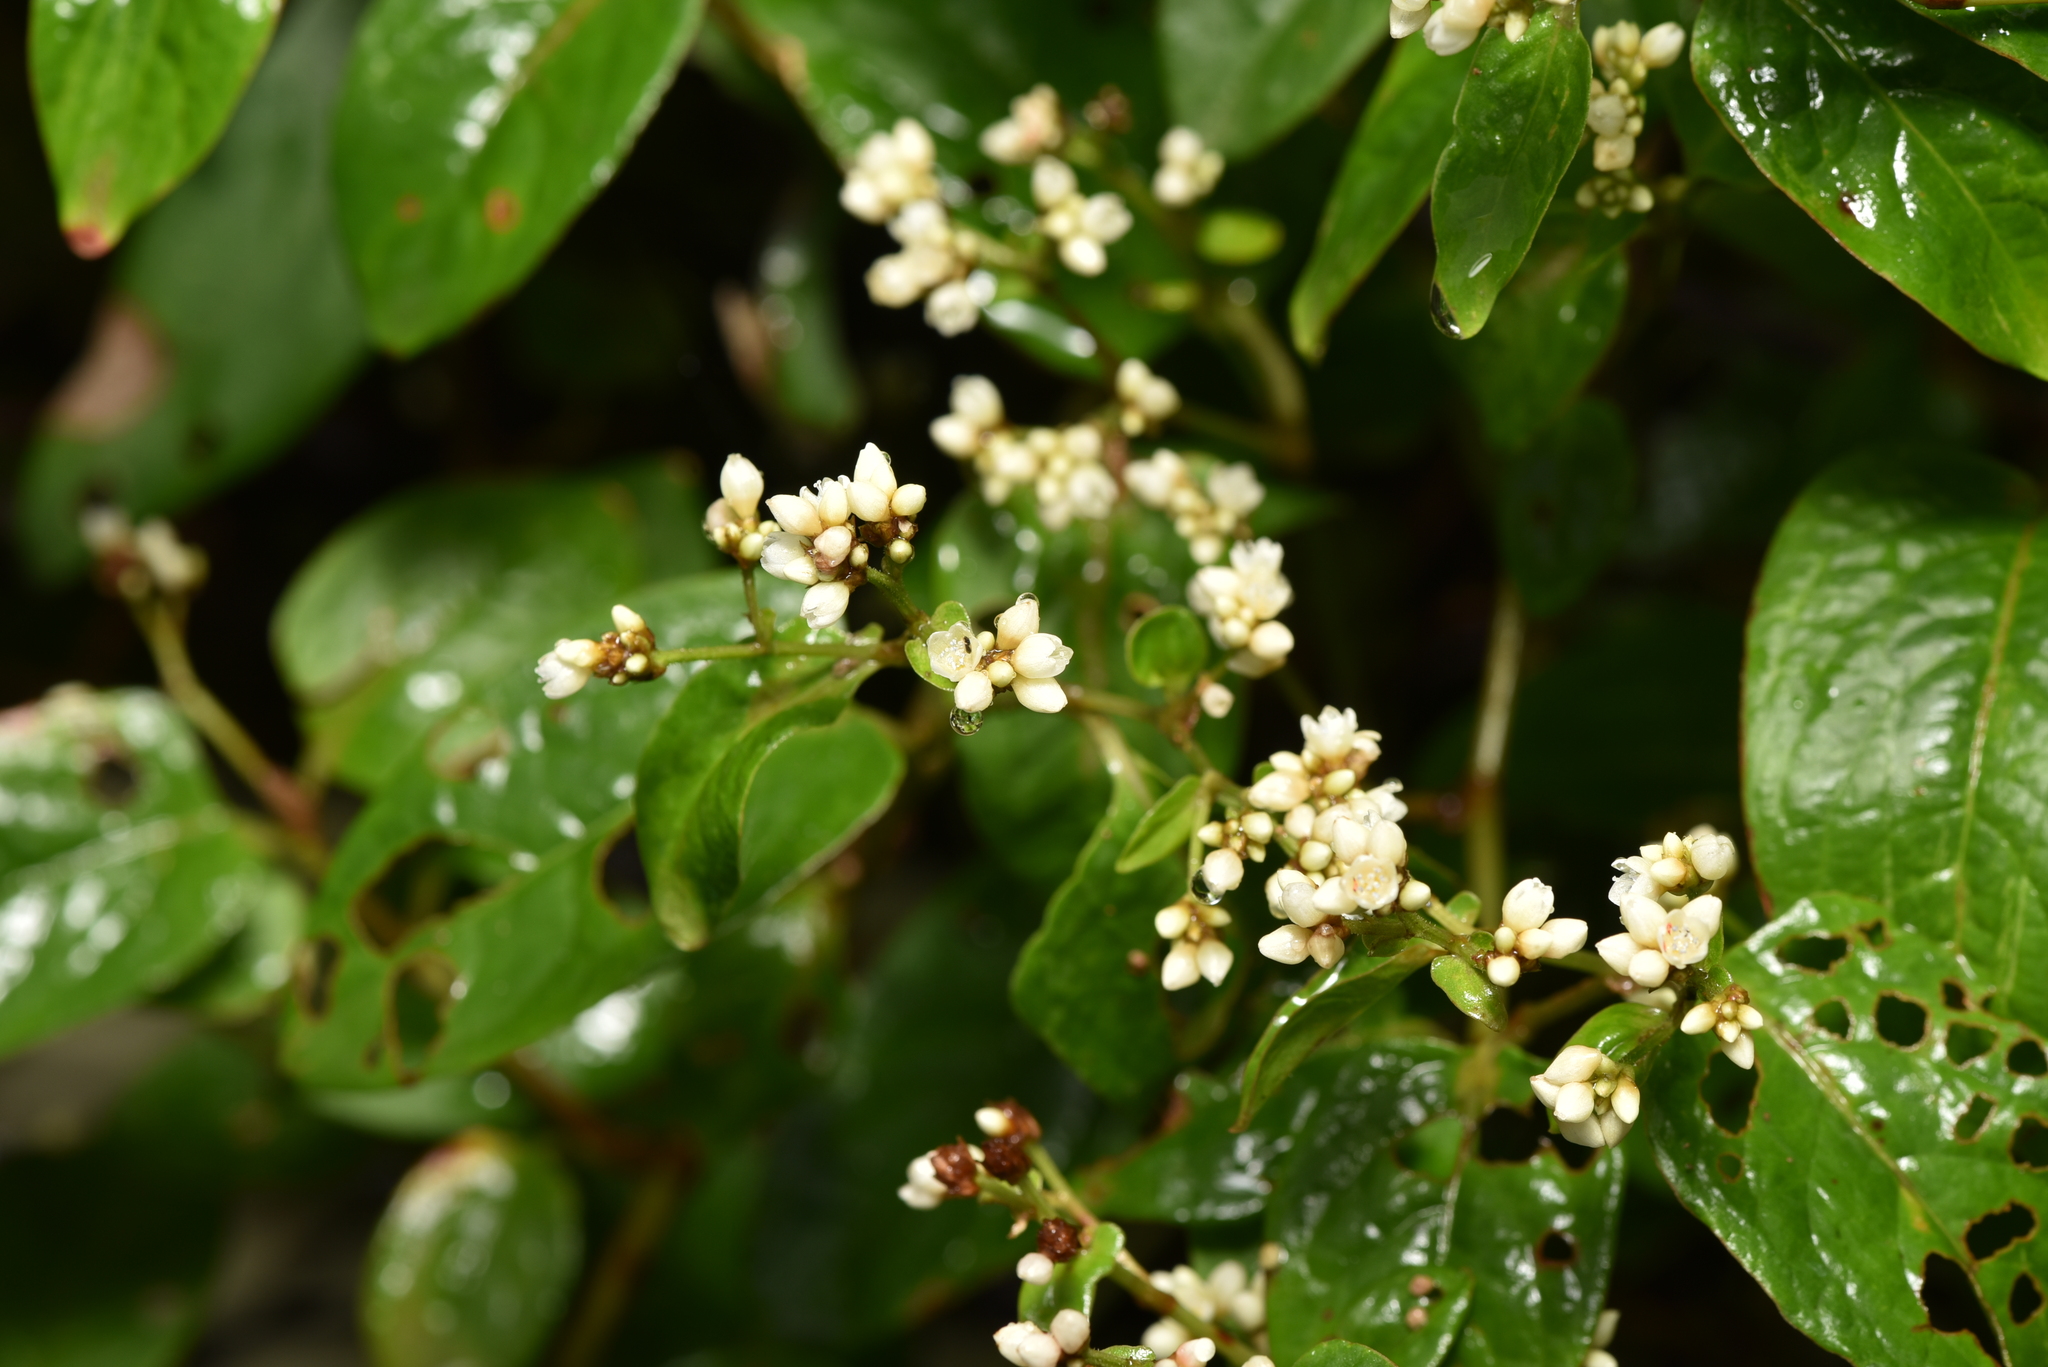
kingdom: Plantae
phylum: Tracheophyta
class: Magnoliopsida
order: Caryophyllales
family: Polygonaceae
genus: Persicaria
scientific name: Persicaria chinensis
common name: Chinese knotweed
